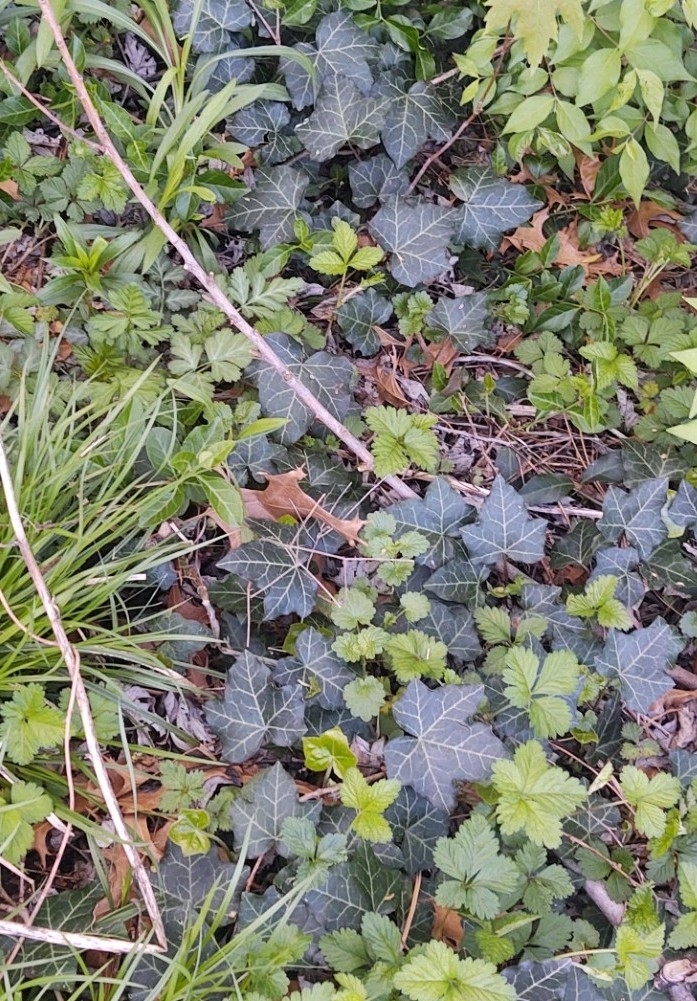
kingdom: Plantae
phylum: Tracheophyta
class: Magnoliopsida
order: Apiales
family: Araliaceae
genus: Hedera
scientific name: Hedera helix
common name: Ivy
